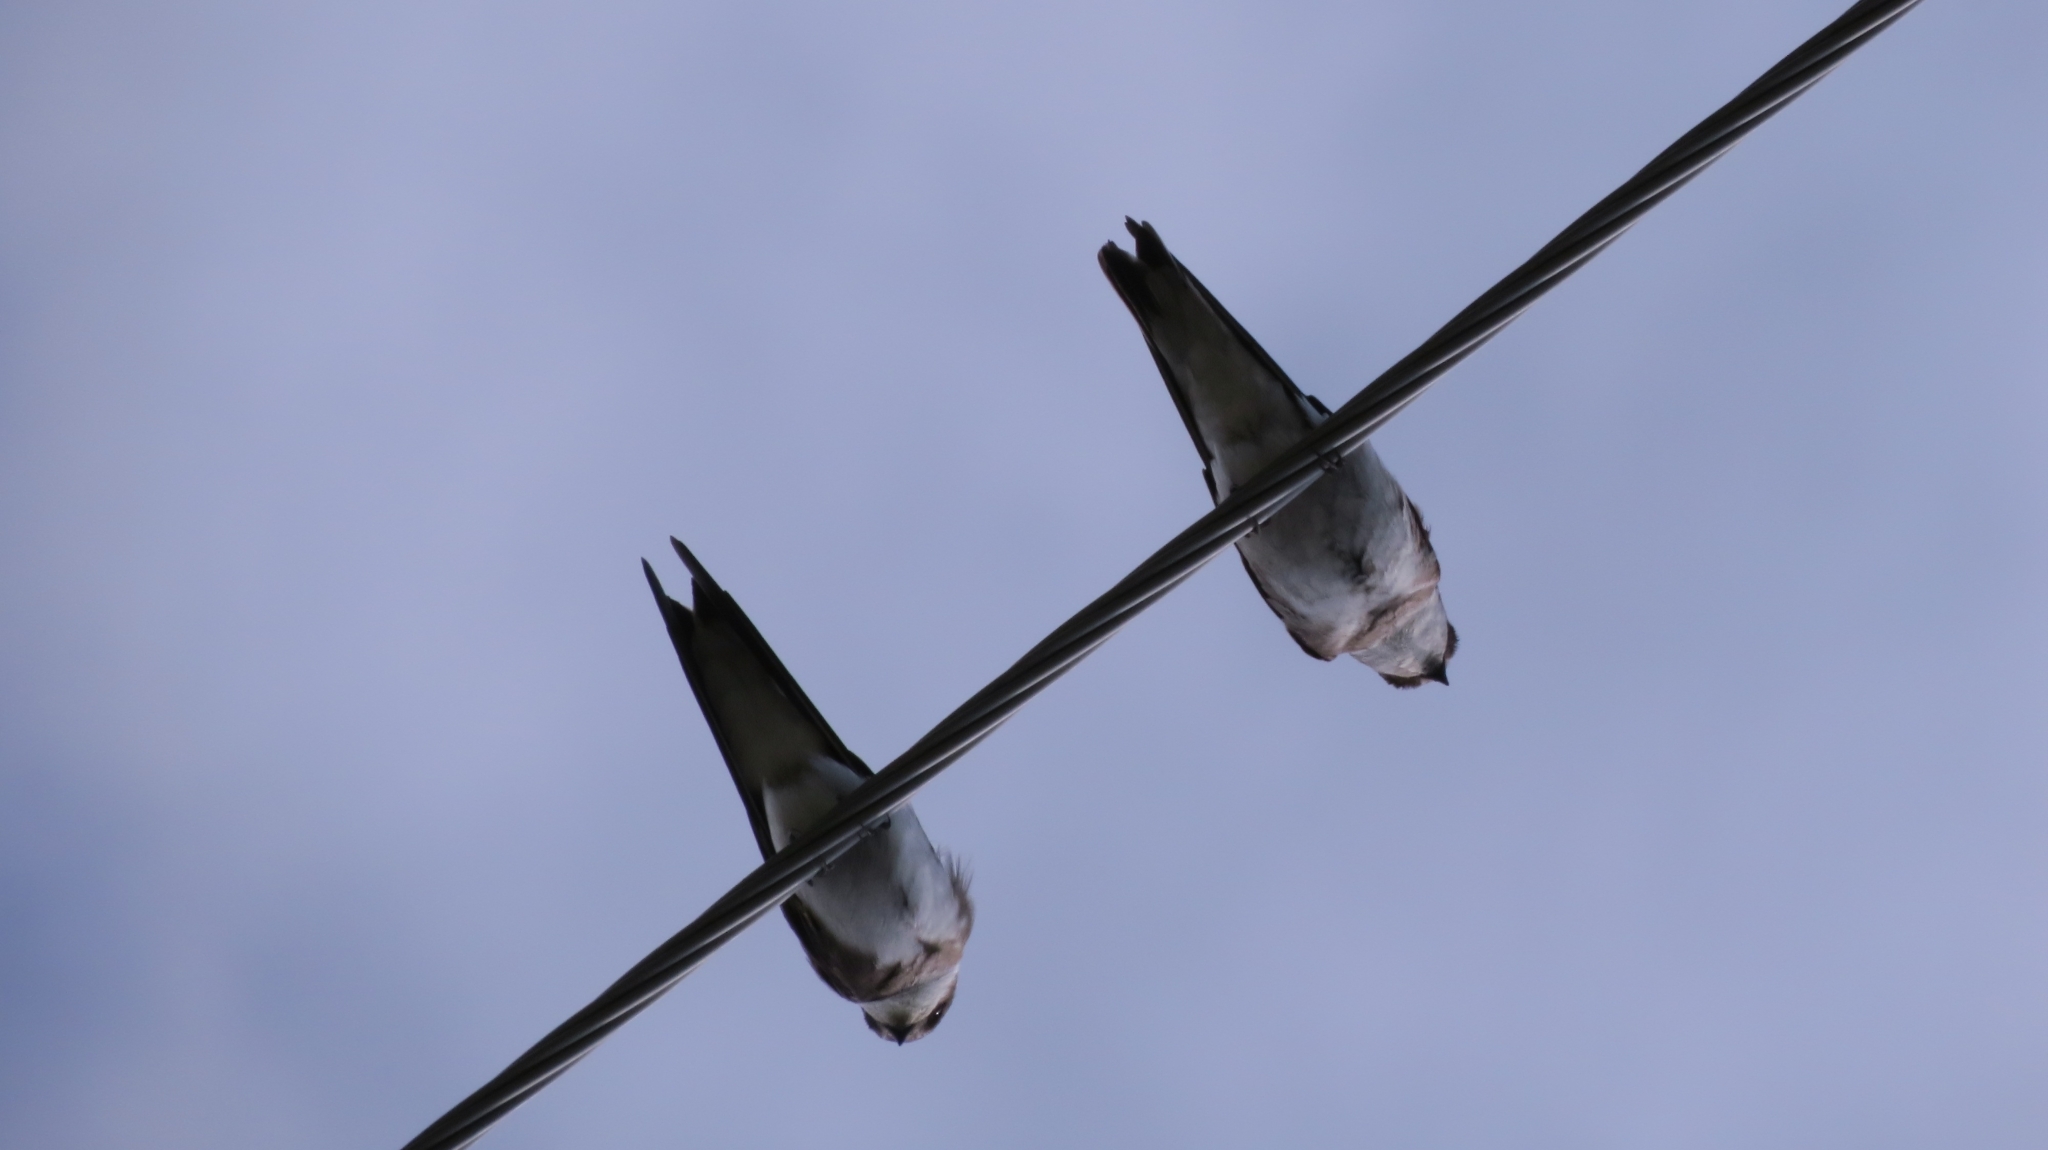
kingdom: Animalia
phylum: Chordata
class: Aves
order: Passeriformes
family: Hirundinidae
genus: Riparia
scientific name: Riparia diluta
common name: Pale martin
